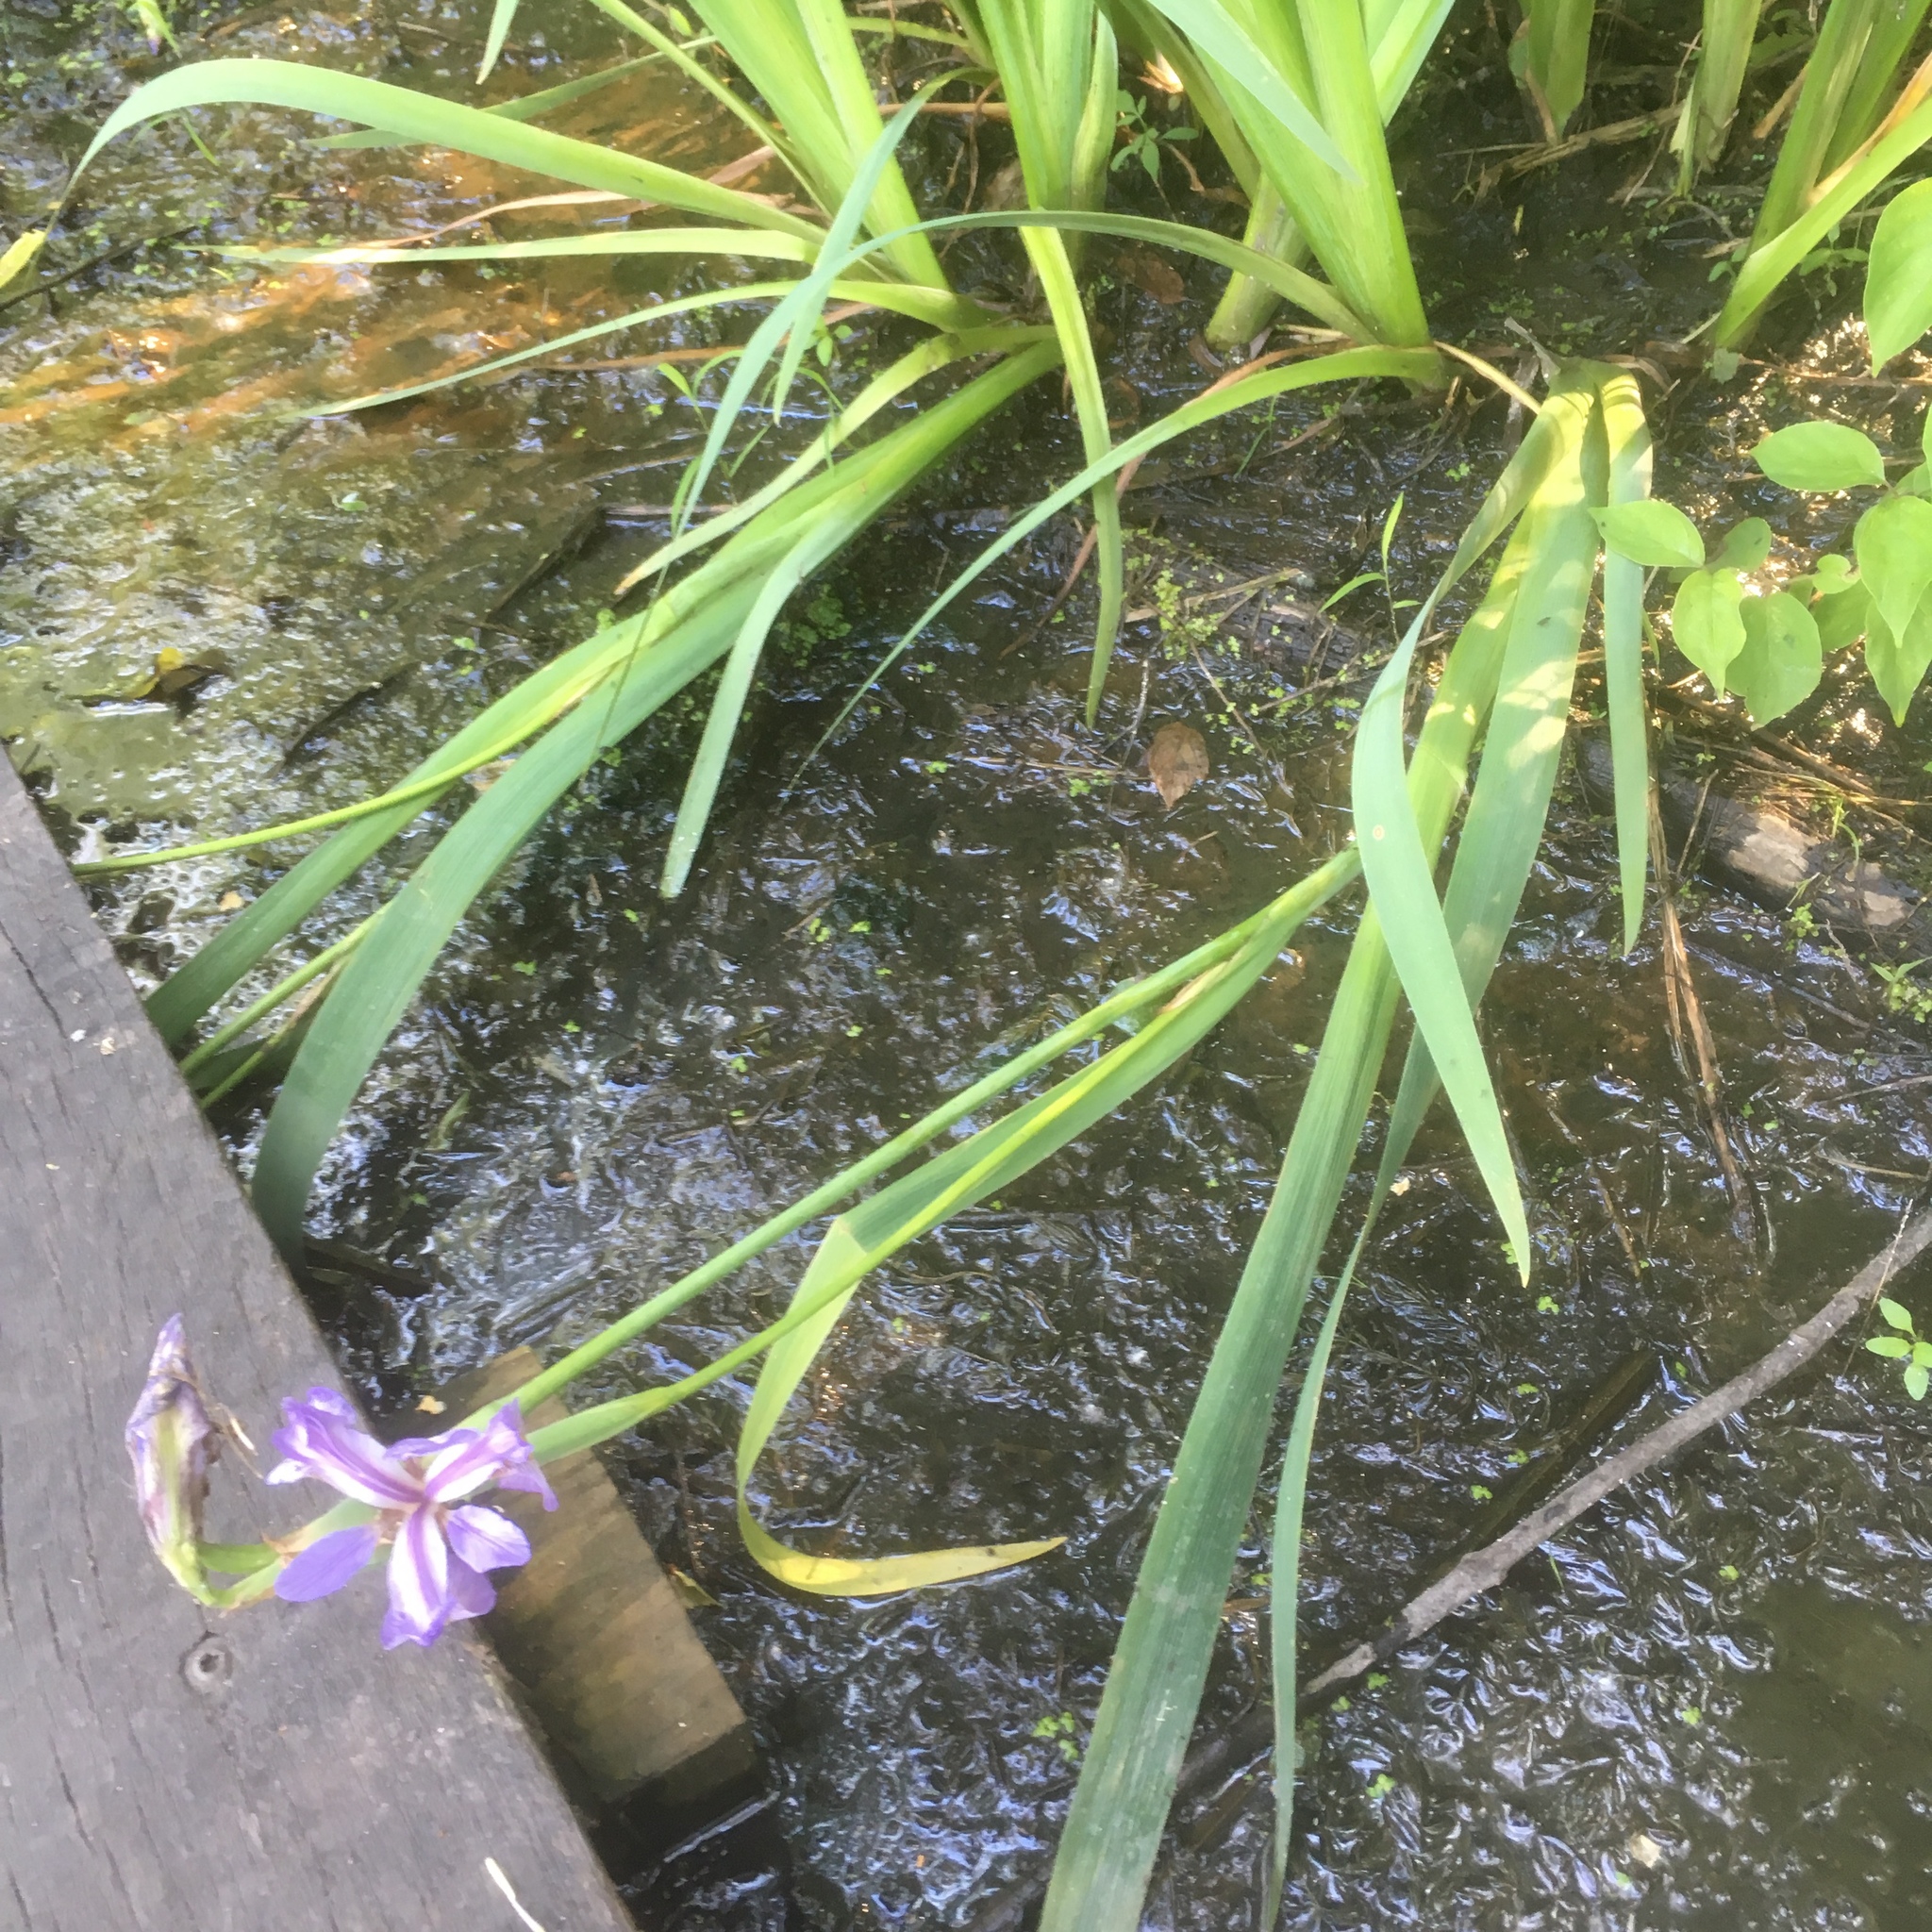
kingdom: Plantae
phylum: Tracheophyta
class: Liliopsida
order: Asparagales
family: Iridaceae
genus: Iris
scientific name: Iris virginica
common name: Southern blue flag
